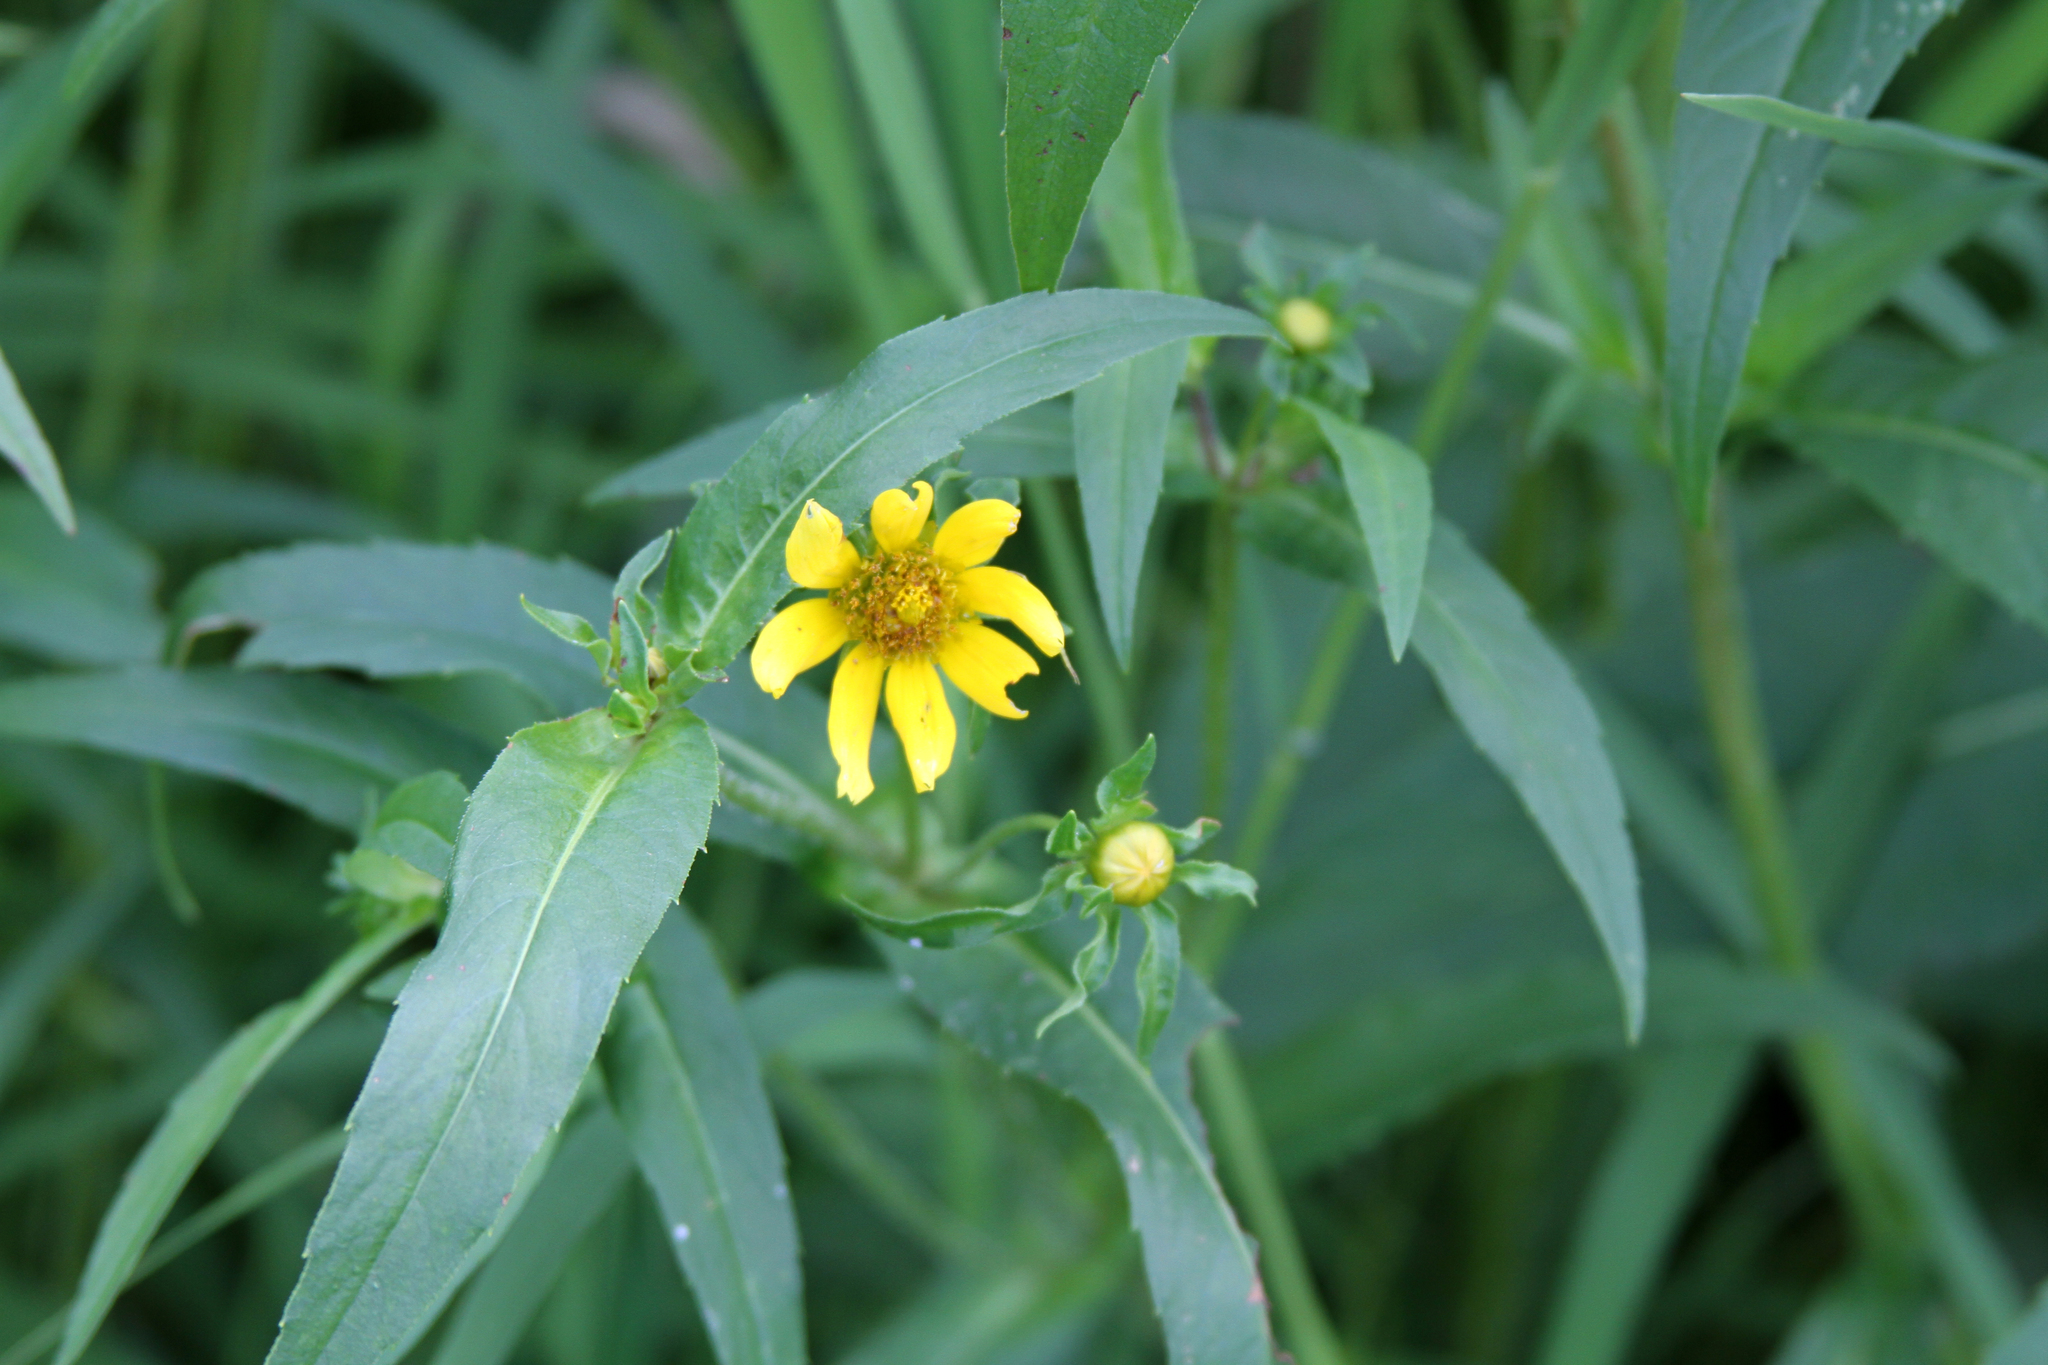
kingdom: Plantae
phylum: Tracheophyta
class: Magnoliopsida
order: Asterales
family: Asteraceae
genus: Bidens
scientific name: Bidens cernua
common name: Nodding bur-marigold
